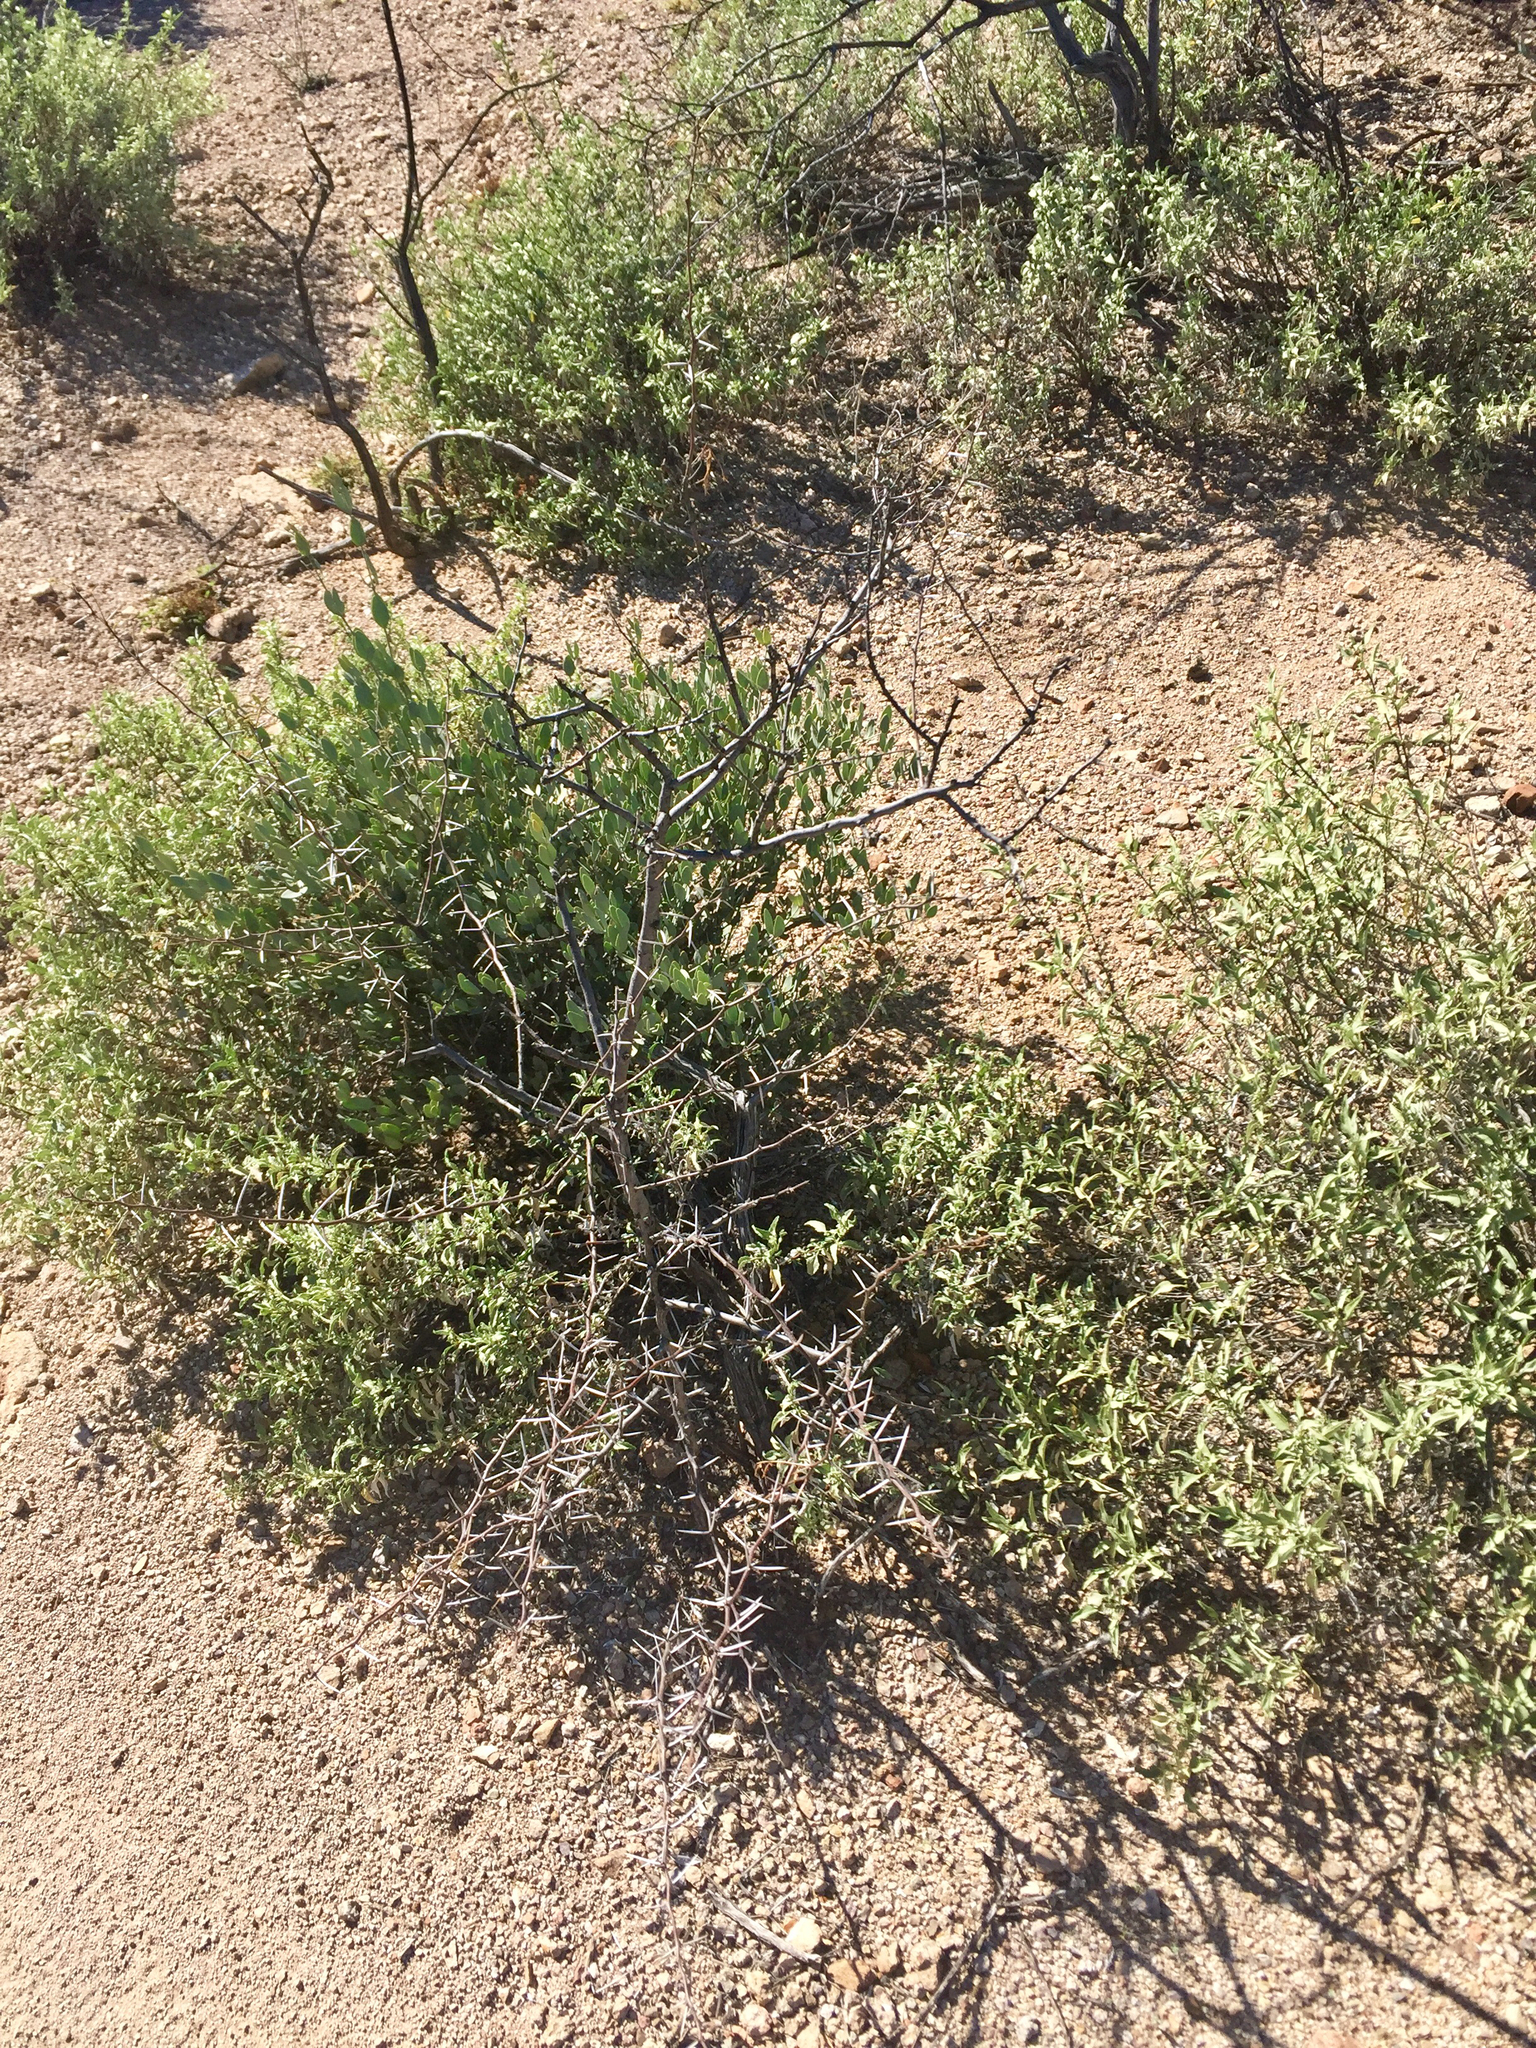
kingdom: Plantae
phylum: Tracheophyta
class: Magnoliopsida
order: Fabales
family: Fabaceae
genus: Vachellia
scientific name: Vachellia constricta
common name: Mescat acacia
